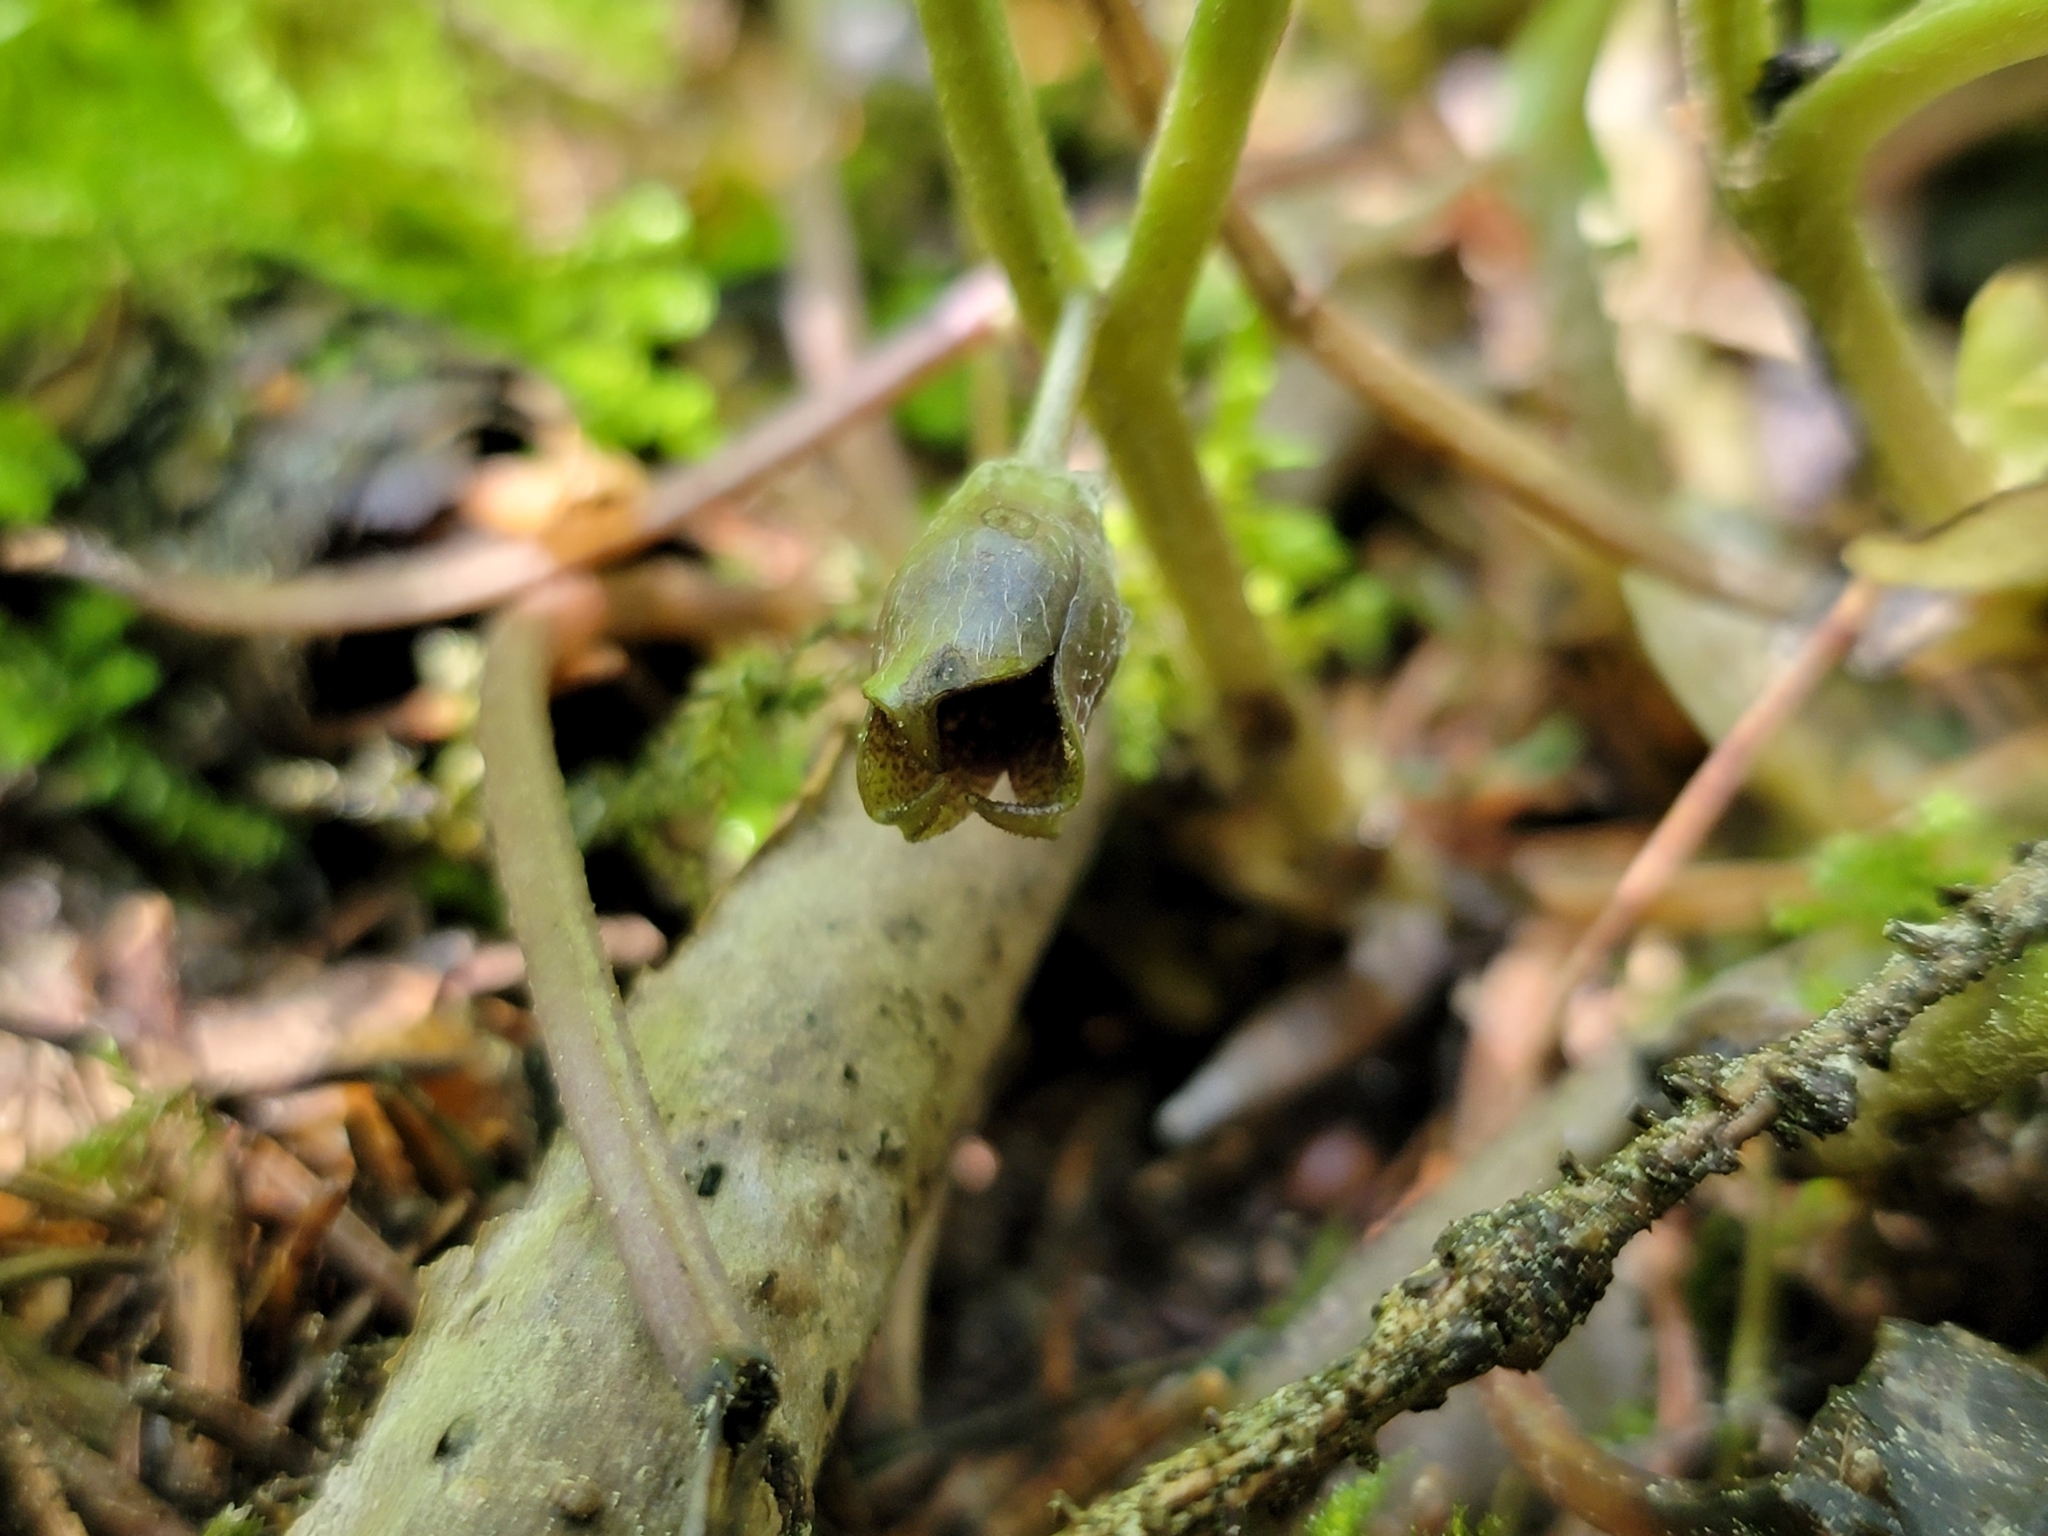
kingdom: Plantae
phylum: Tracheophyta
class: Magnoliopsida
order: Piperales
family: Aristolochiaceae
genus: Asarum
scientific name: Asarum europaeum
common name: Asarabacca
